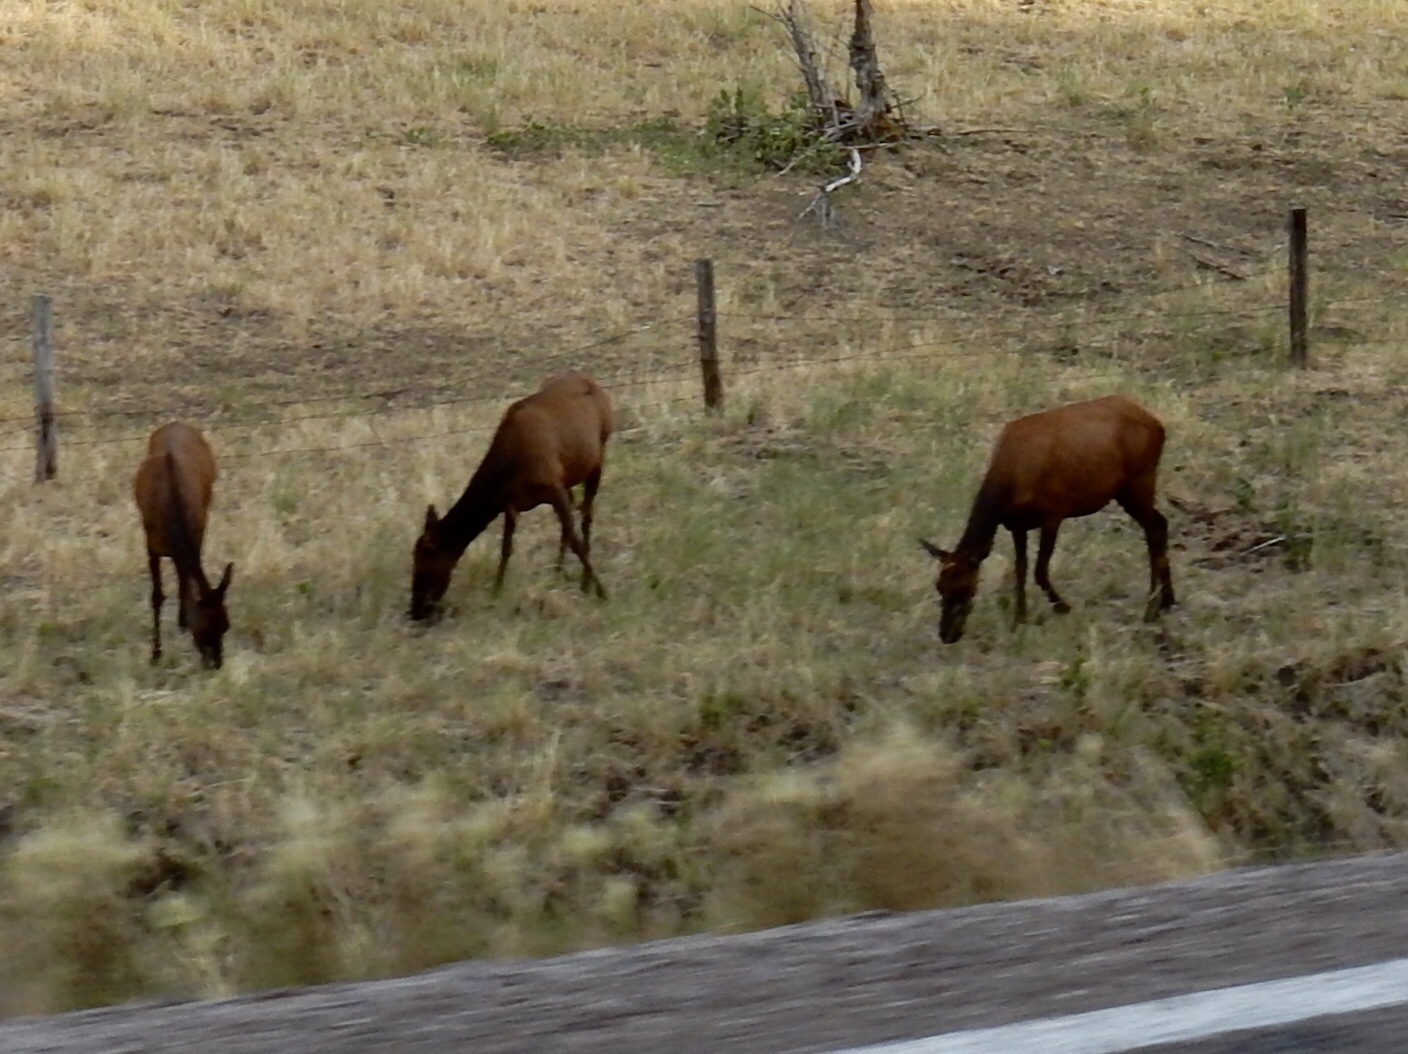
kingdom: Animalia
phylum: Chordata
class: Mammalia
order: Artiodactyla
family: Cervidae
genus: Cervus
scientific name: Cervus elaphus
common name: Red deer
